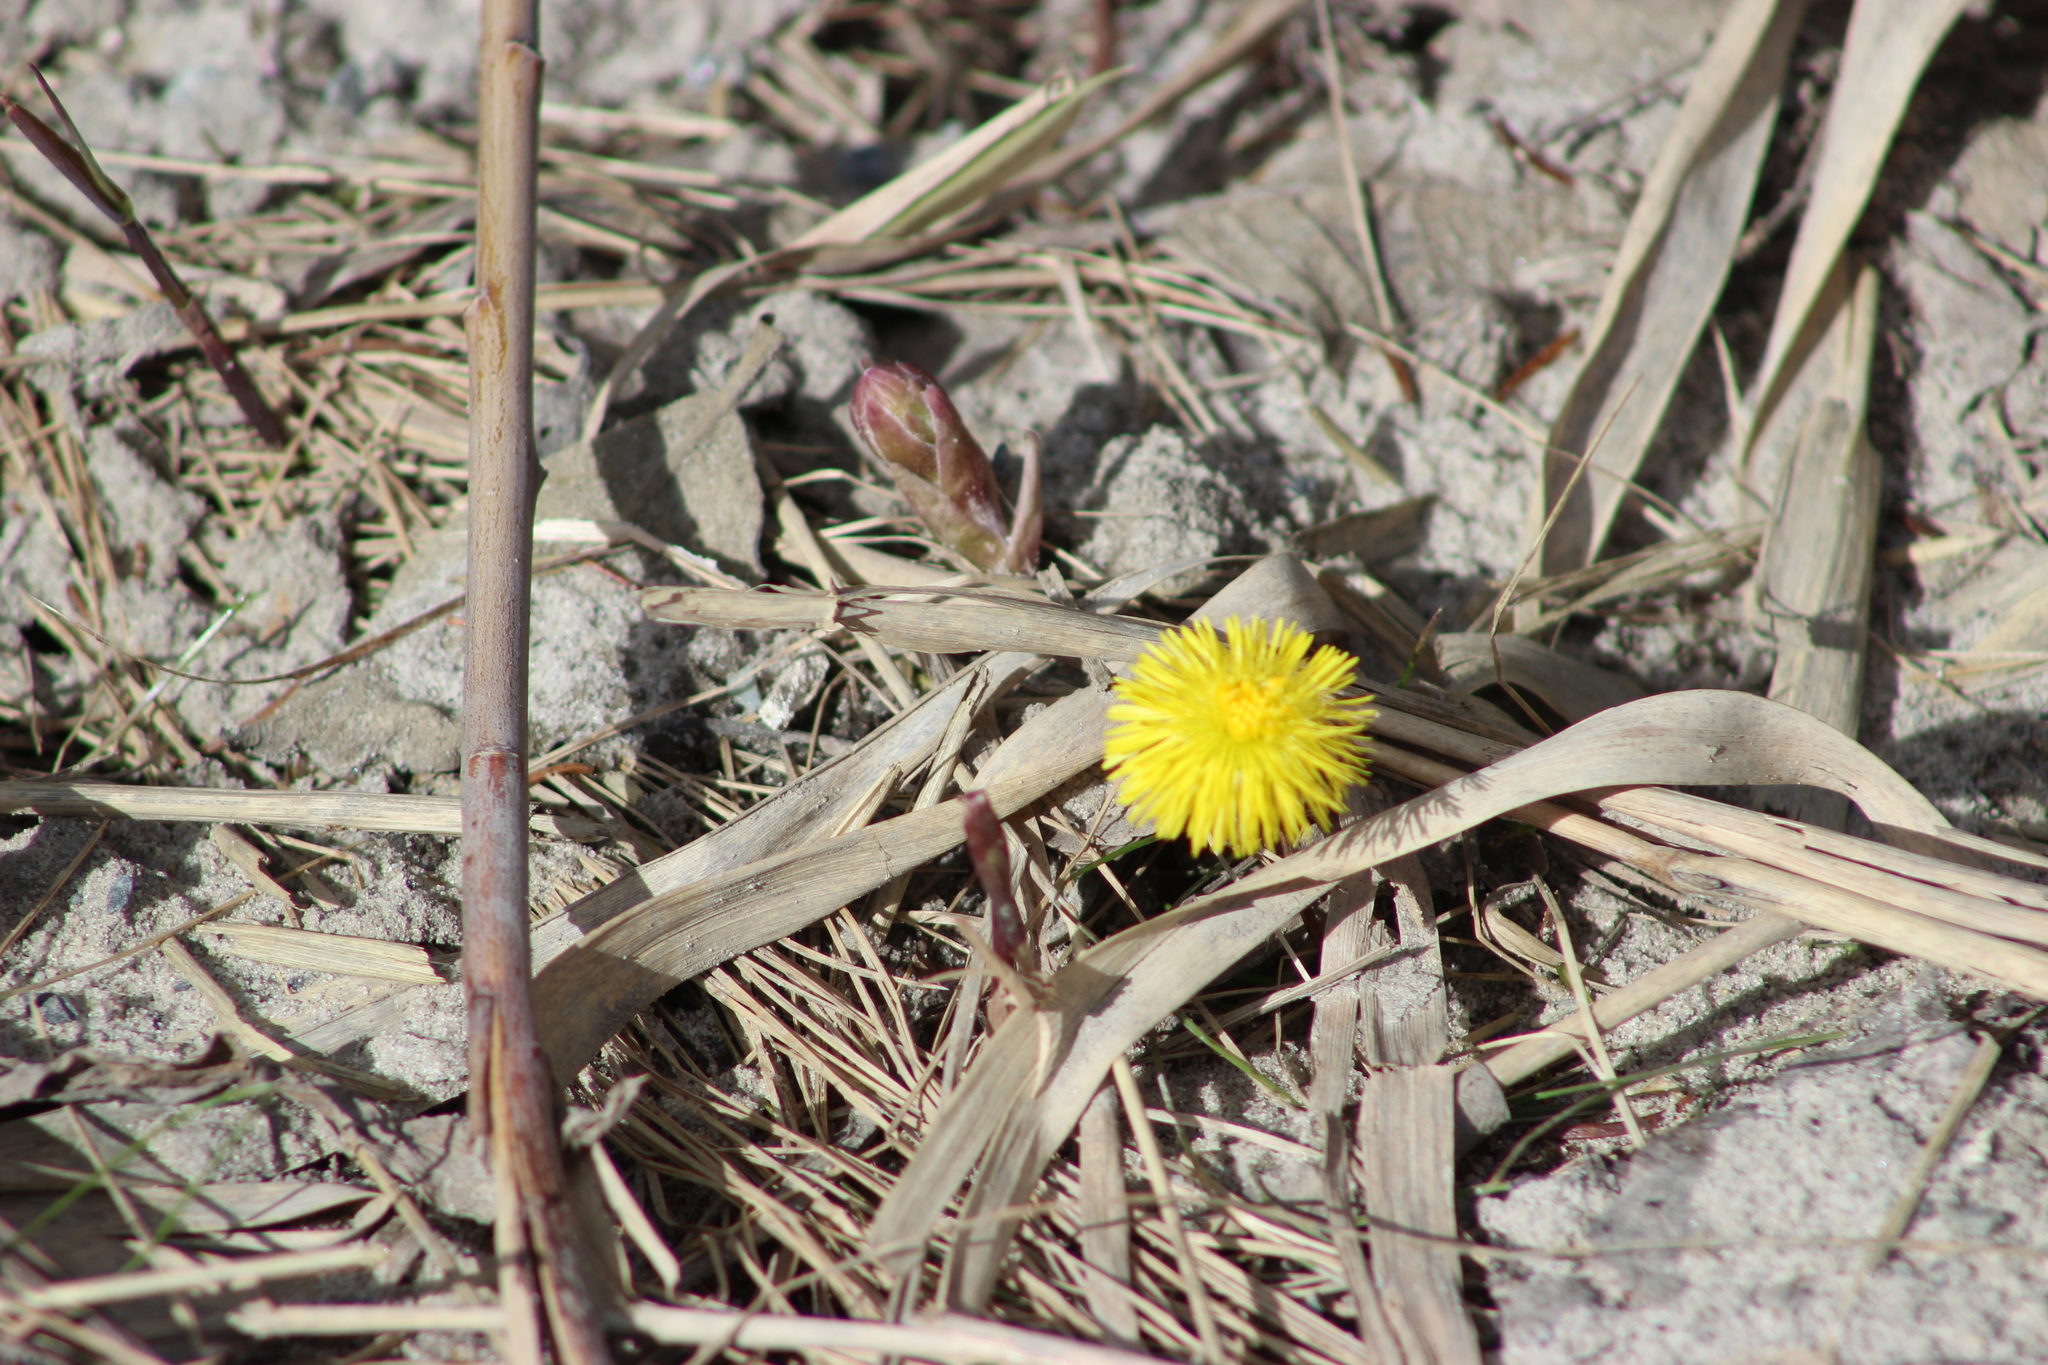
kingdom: Plantae
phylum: Tracheophyta
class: Magnoliopsida
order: Asterales
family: Asteraceae
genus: Tussilago
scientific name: Tussilago farfara
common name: Coltsfoot
